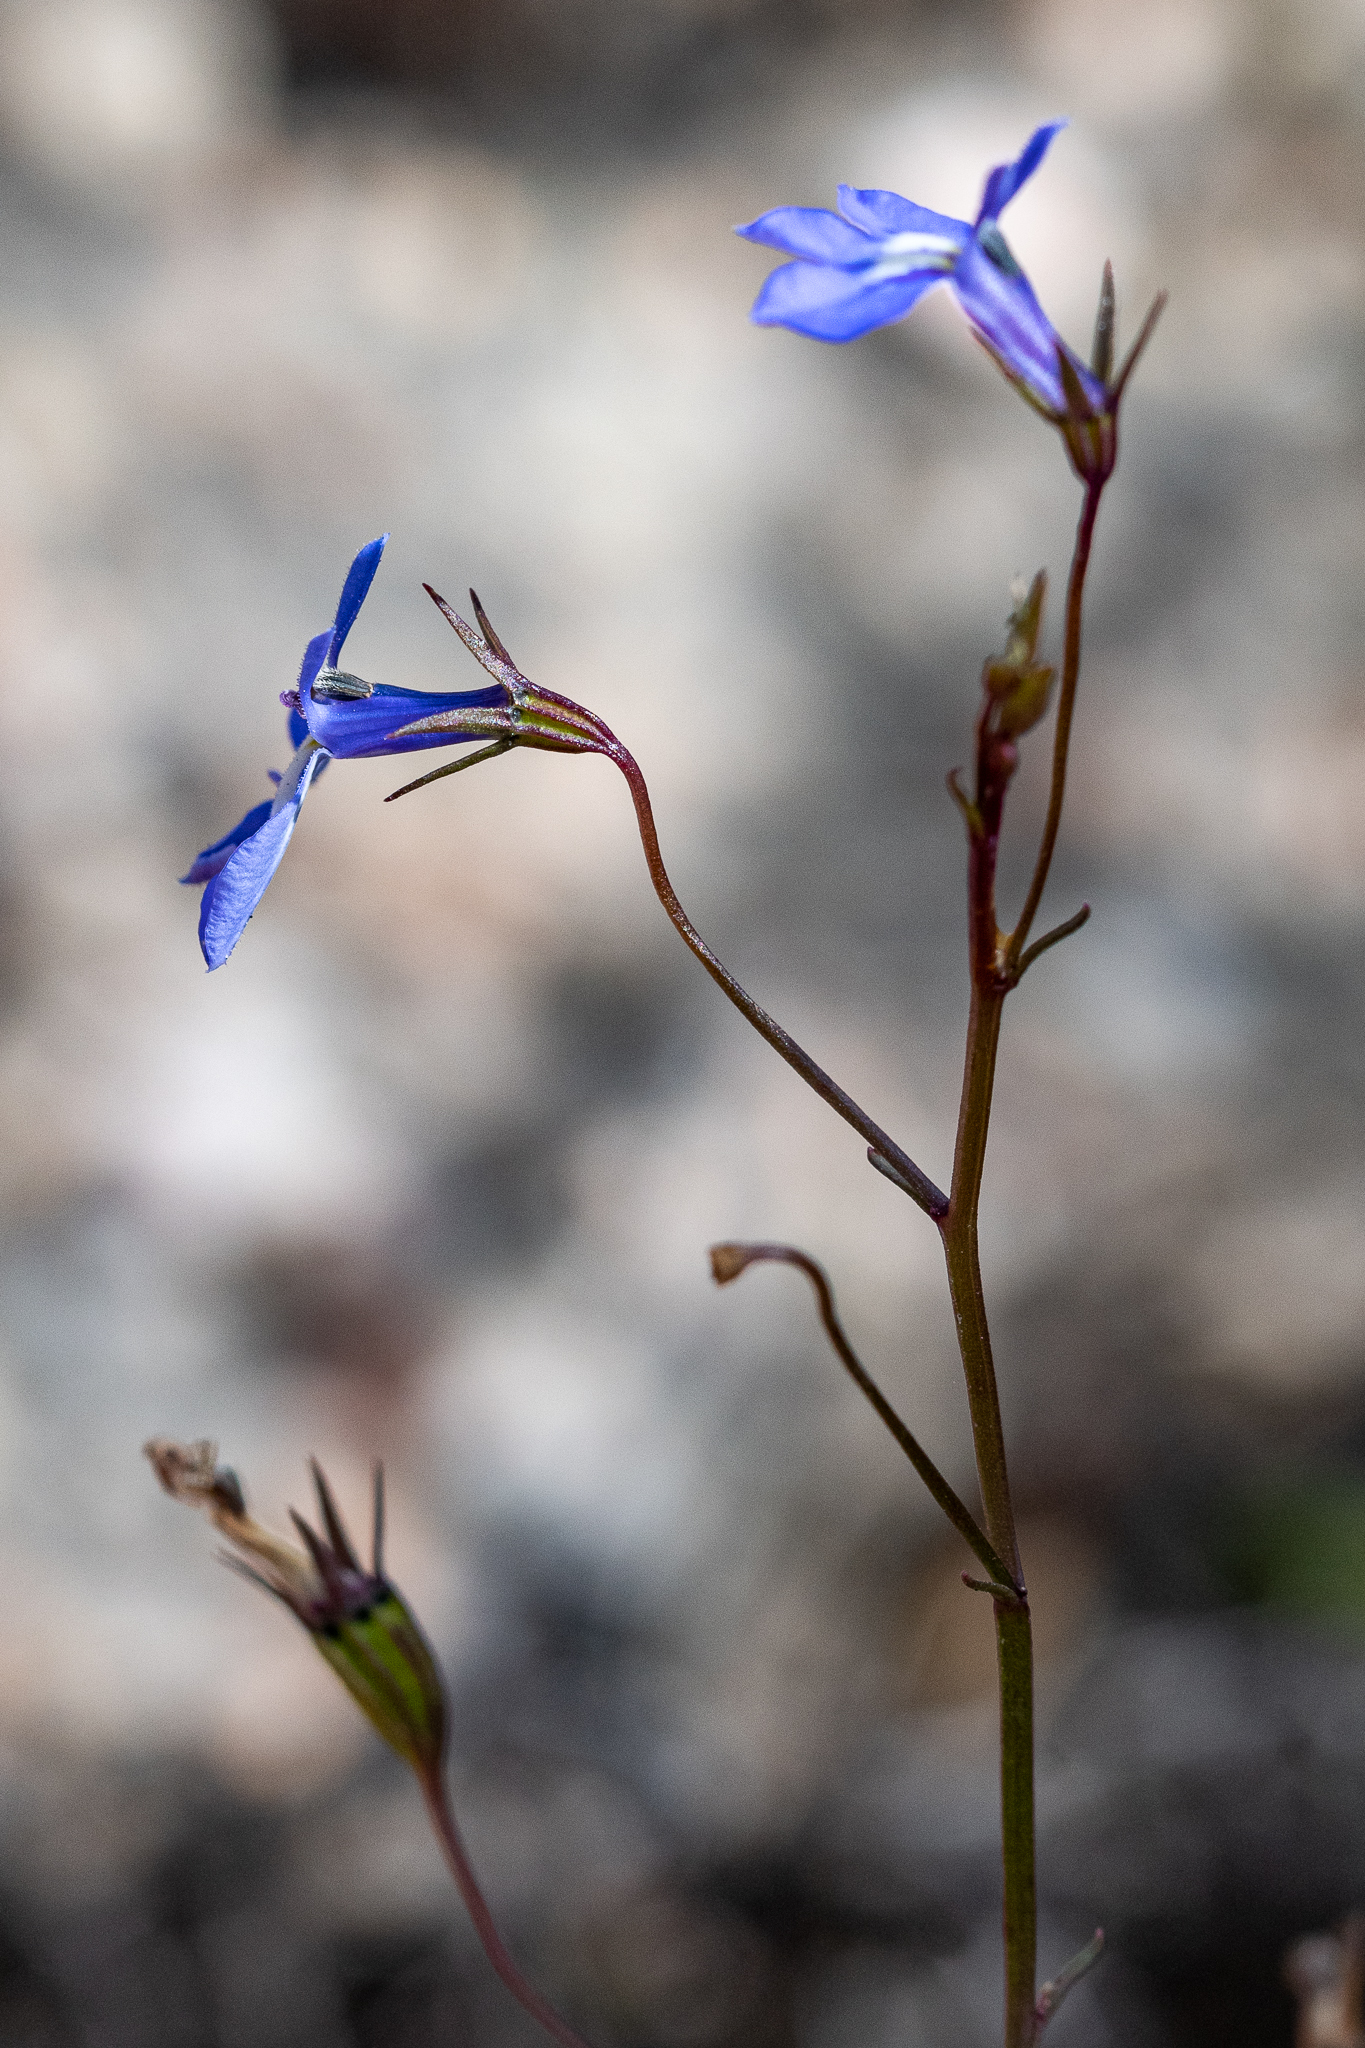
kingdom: Plantae
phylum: Tracheophyta
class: Magnoliopsida
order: Asterales
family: Campanulaceae
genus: Lobelia
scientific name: Lobelia erinus
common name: Edging lobelia
